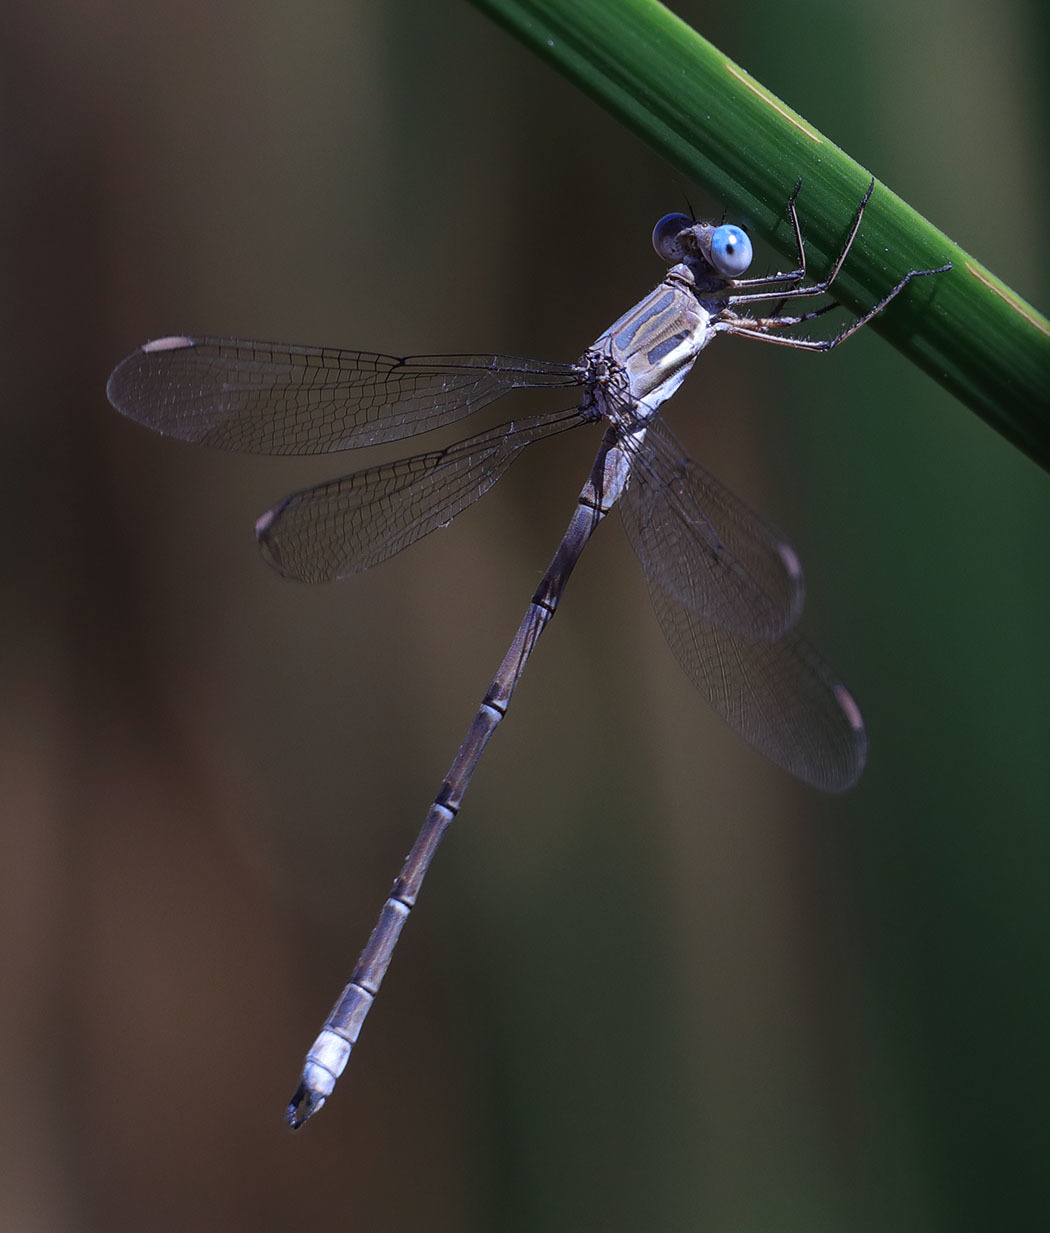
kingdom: Animalia
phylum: Arthropoda
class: Insecta
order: Odonata
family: Lestidae
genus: Archilestes
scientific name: Archilestes californicus
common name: California spreadwing
